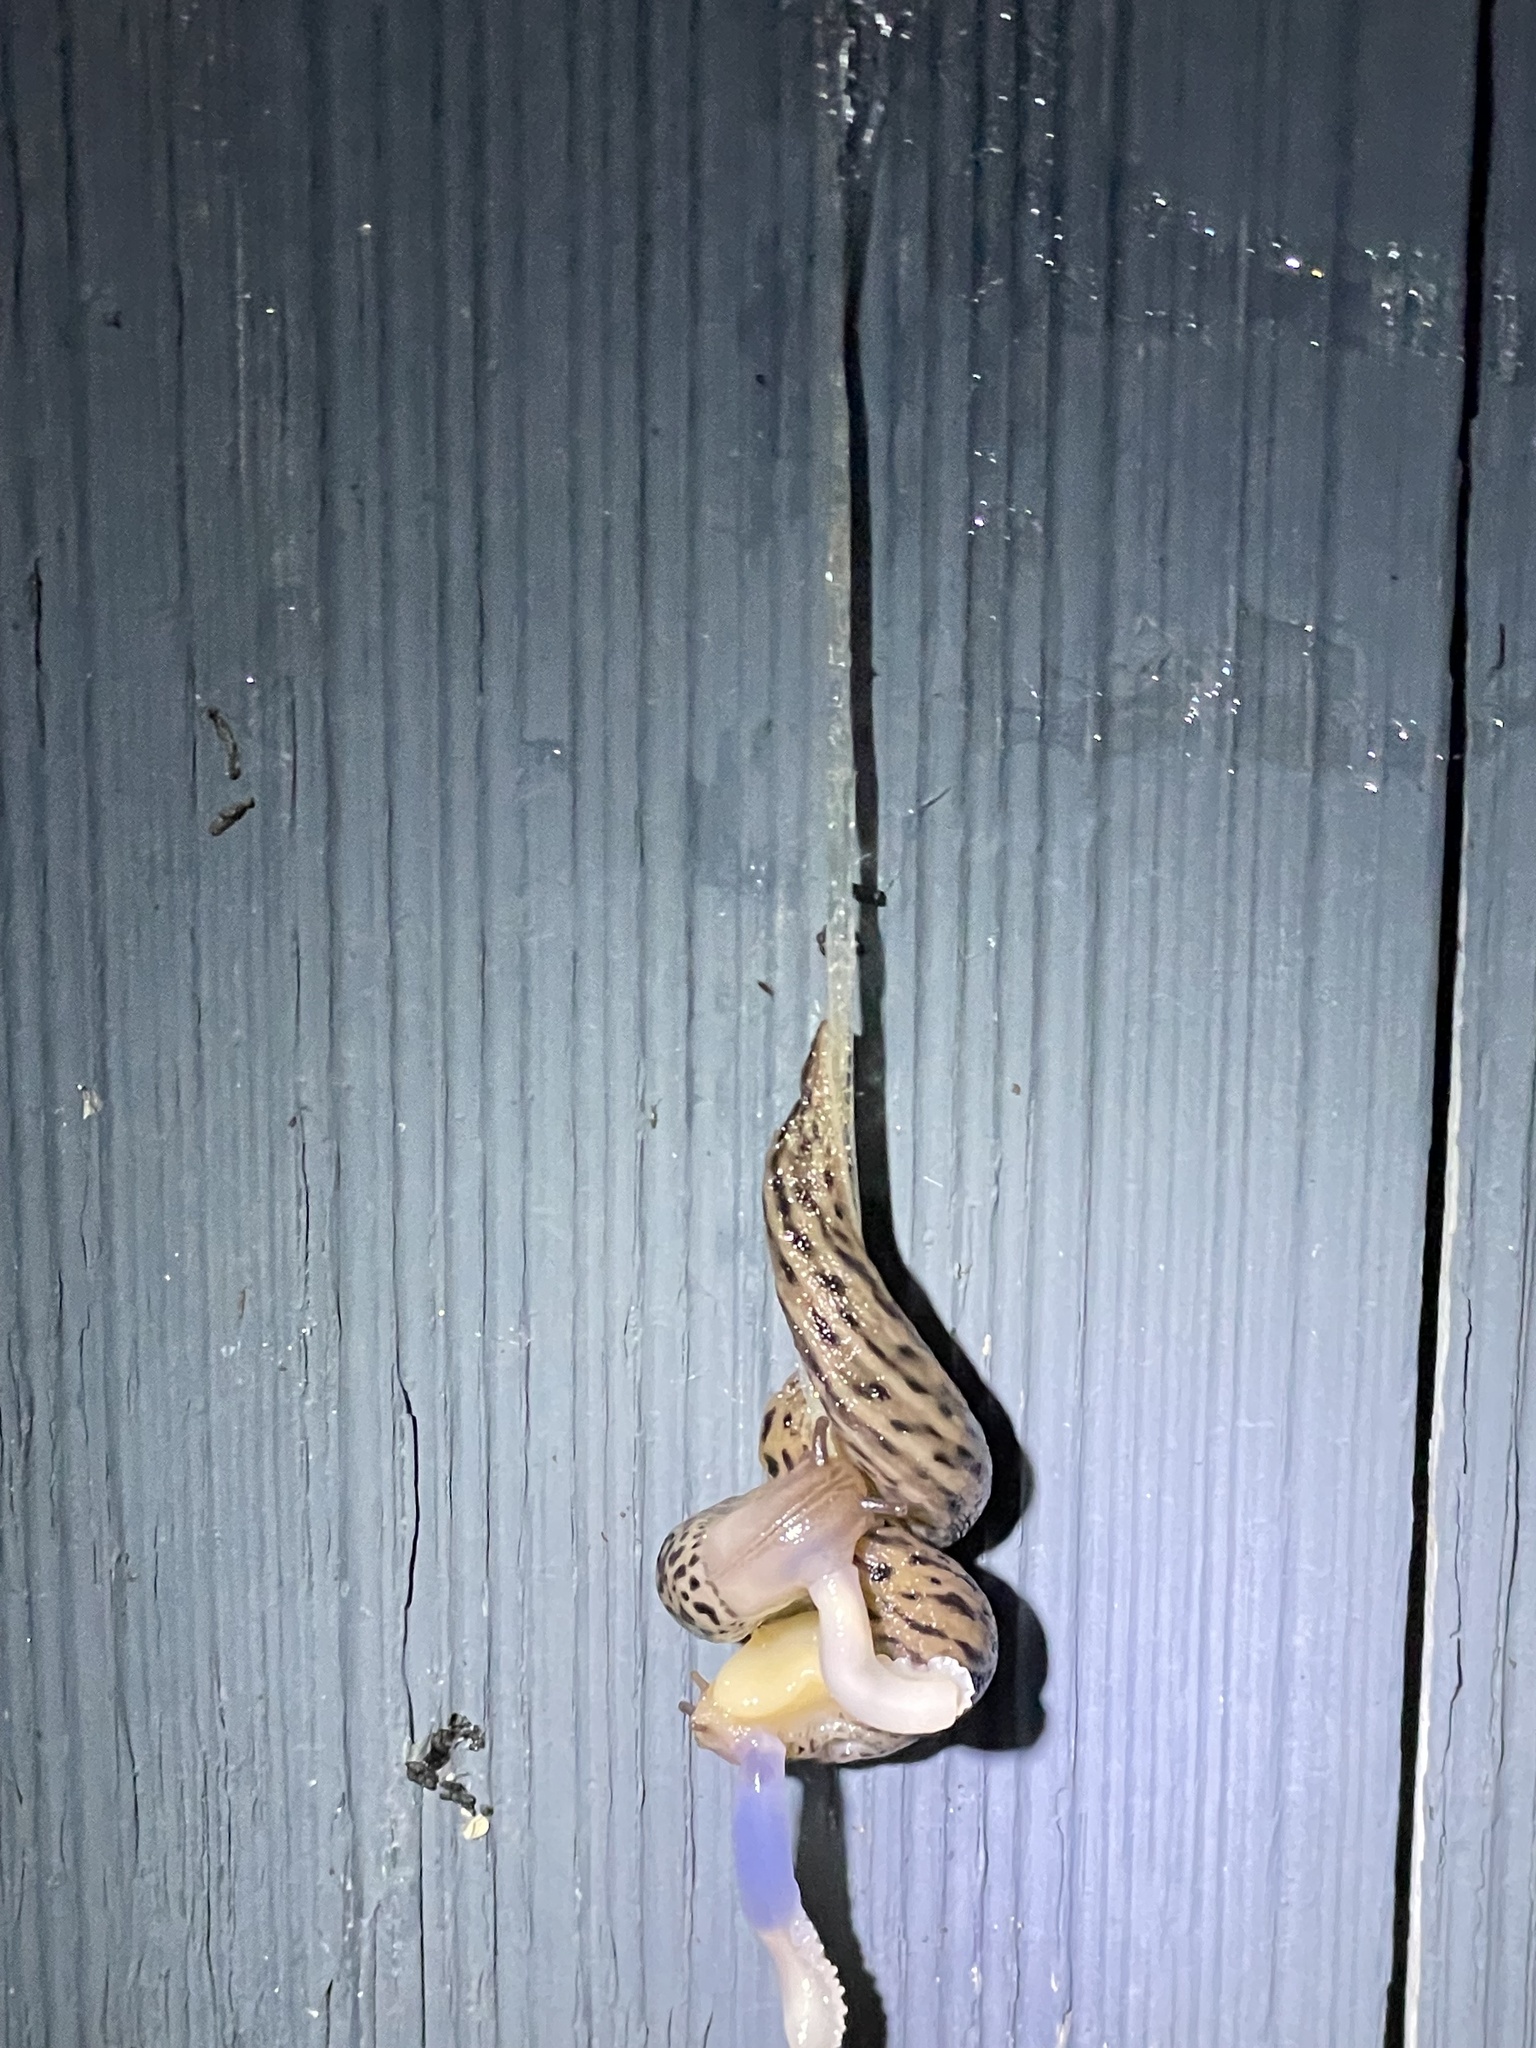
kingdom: Animalia
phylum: Mollusca
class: Gastropoda
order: Stylommatophora
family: Limacidae
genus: Limax
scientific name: Limax maximus
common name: Great grey slug
